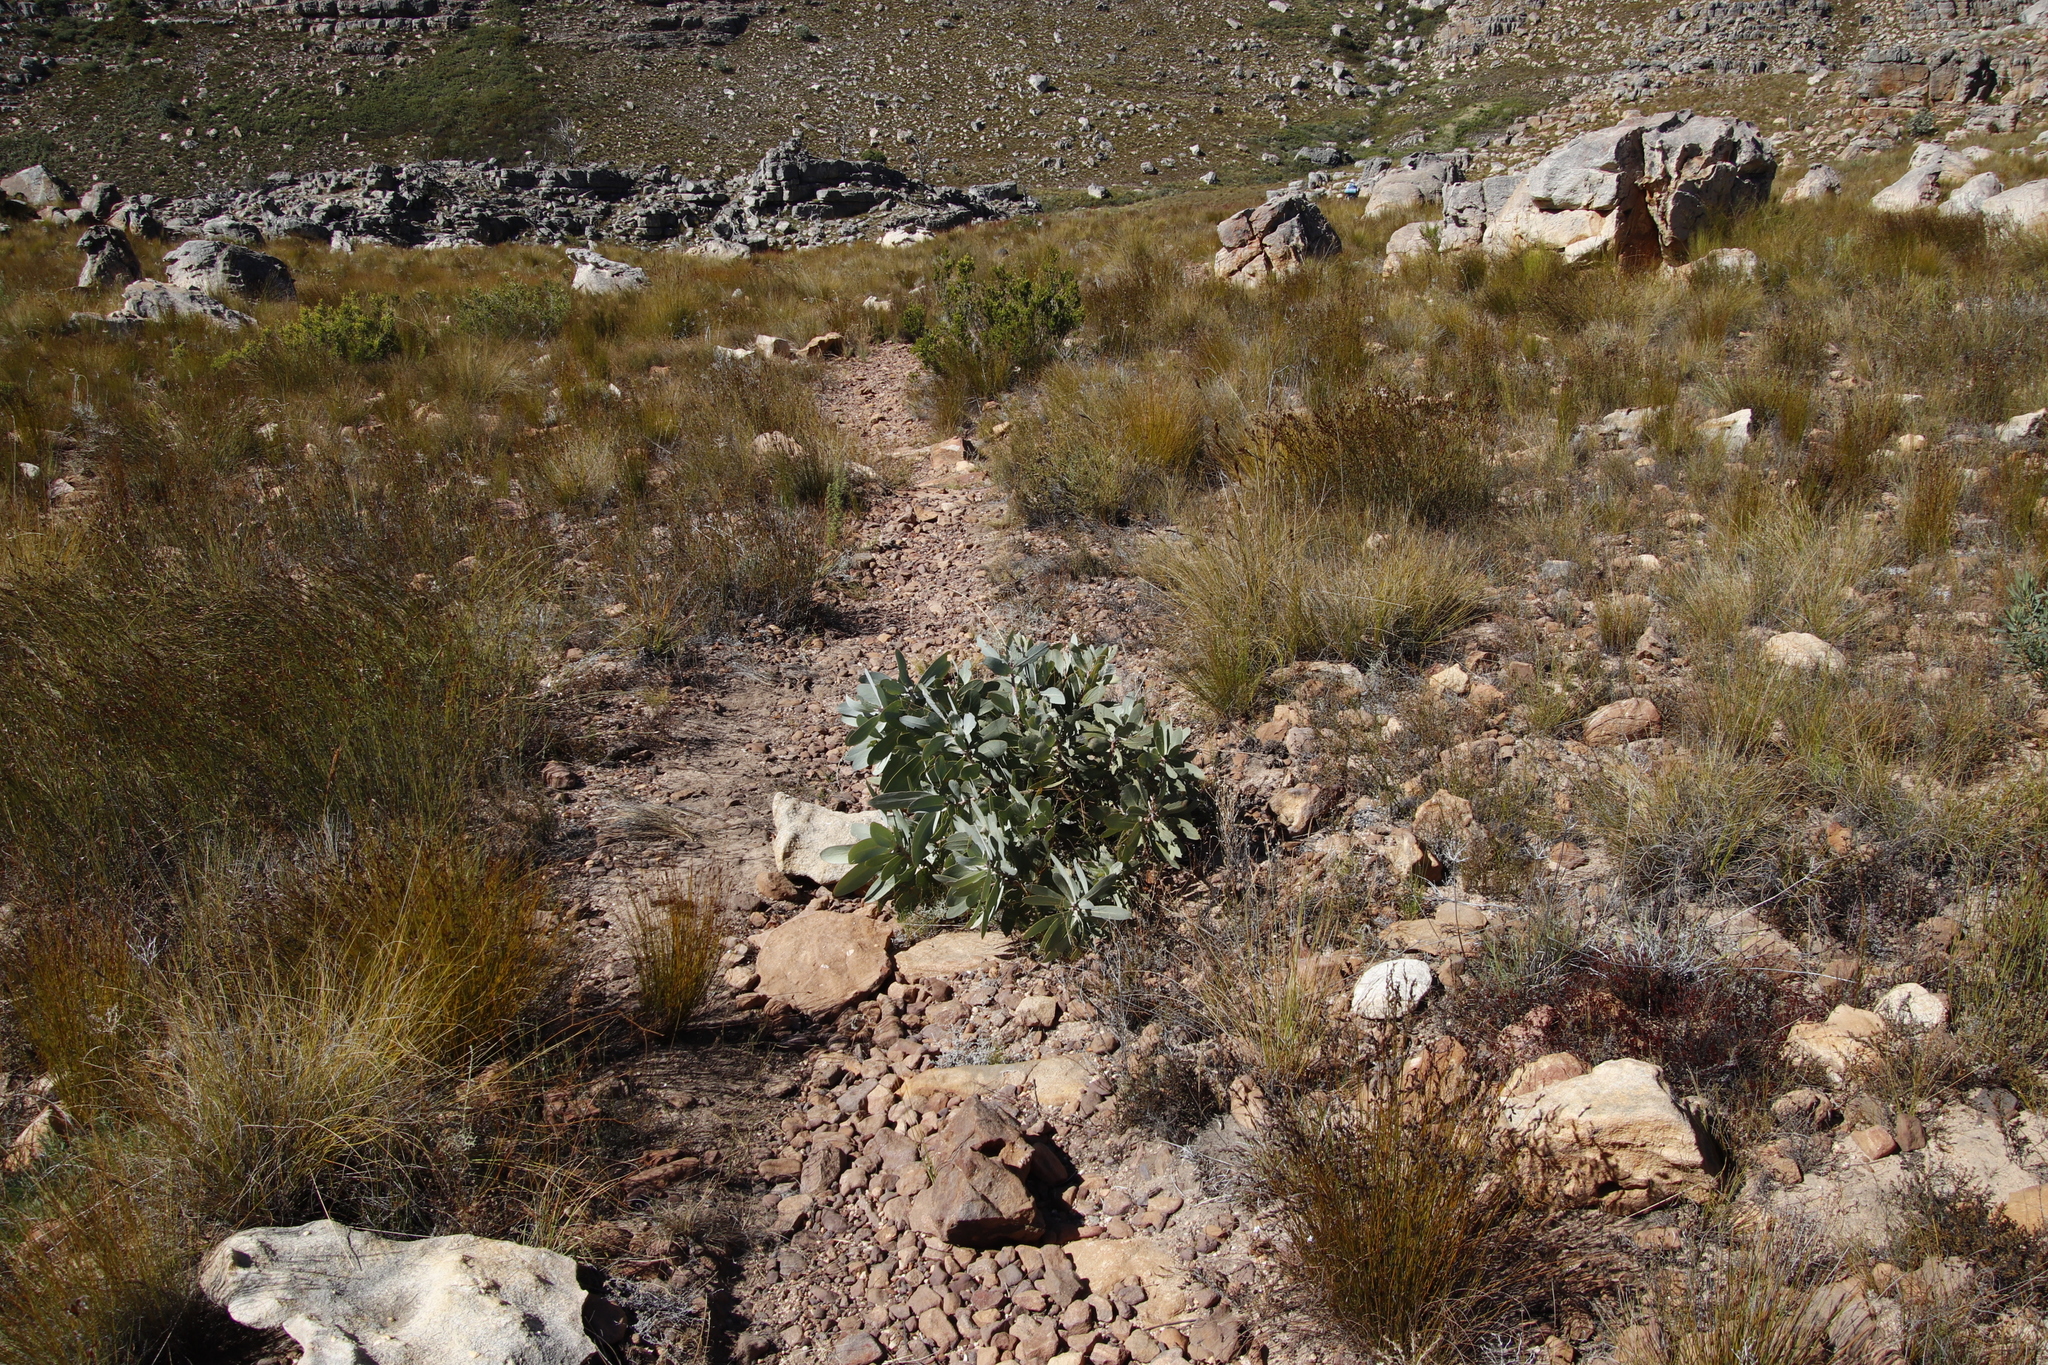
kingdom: Plantae
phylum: Tracheophyta
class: Magnoliopsida
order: Proteales
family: Proteaceae
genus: Protea
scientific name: Protea nitida
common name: Tree protea
